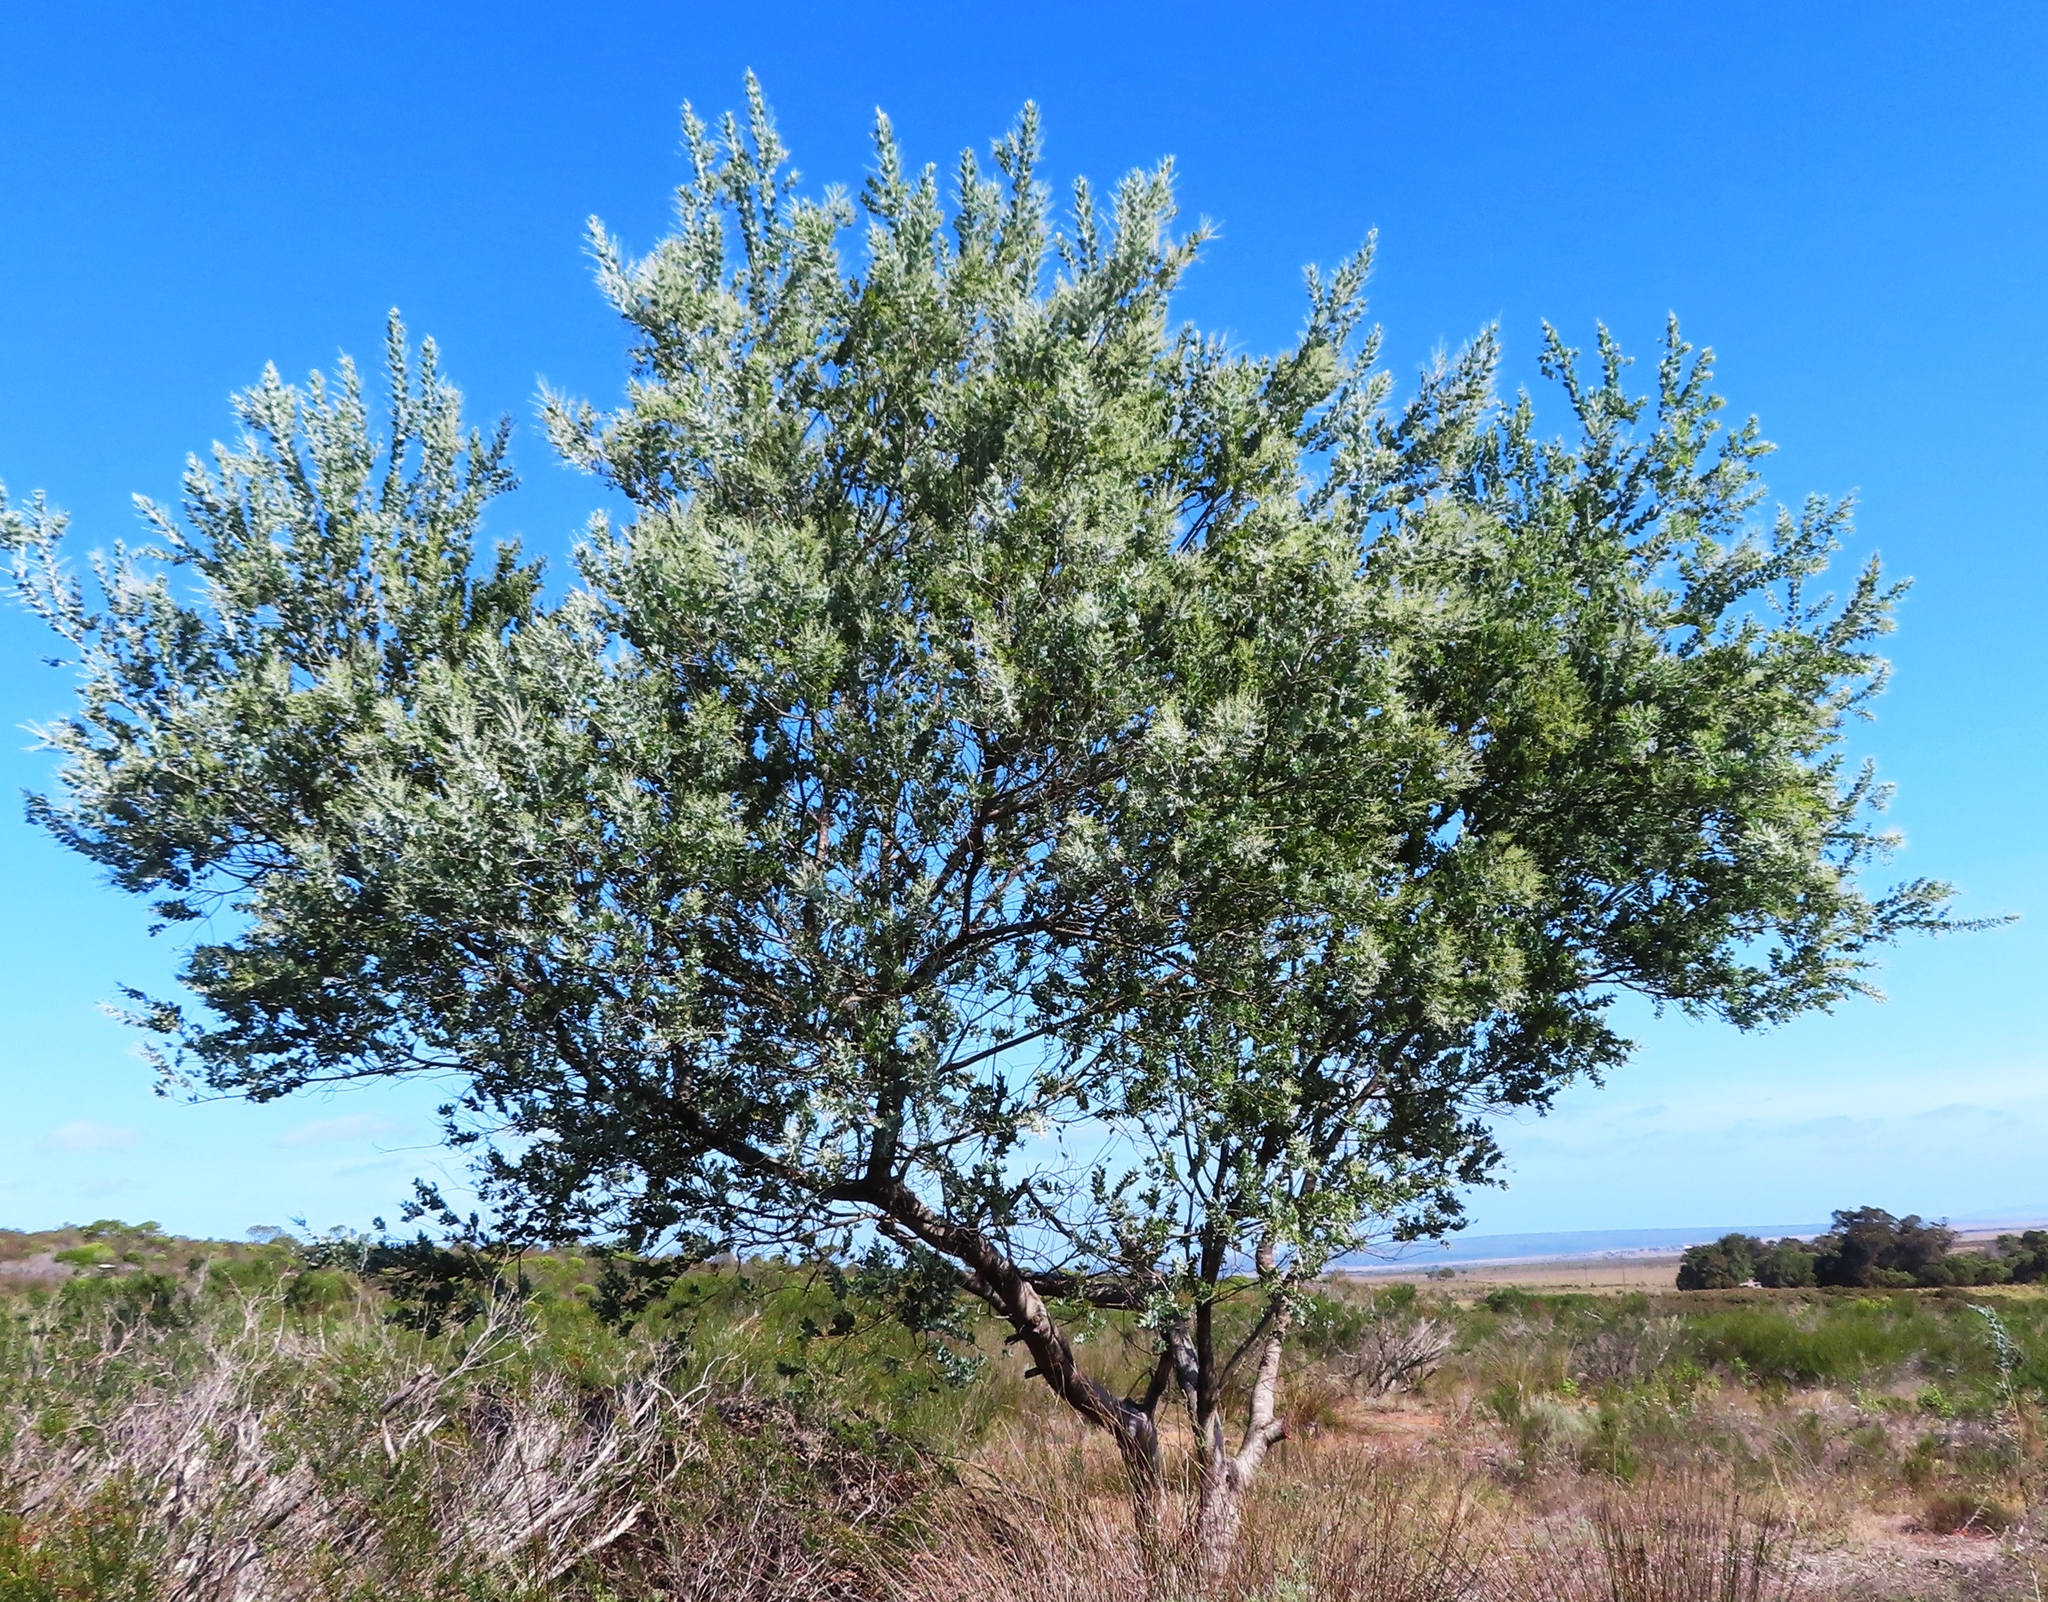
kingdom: Plantae
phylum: Tracheophyta
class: Magnoliopsida
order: Fabales
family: Fabaceae
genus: Acacia
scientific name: Acacia baileyana
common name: Cootamundra wattle
